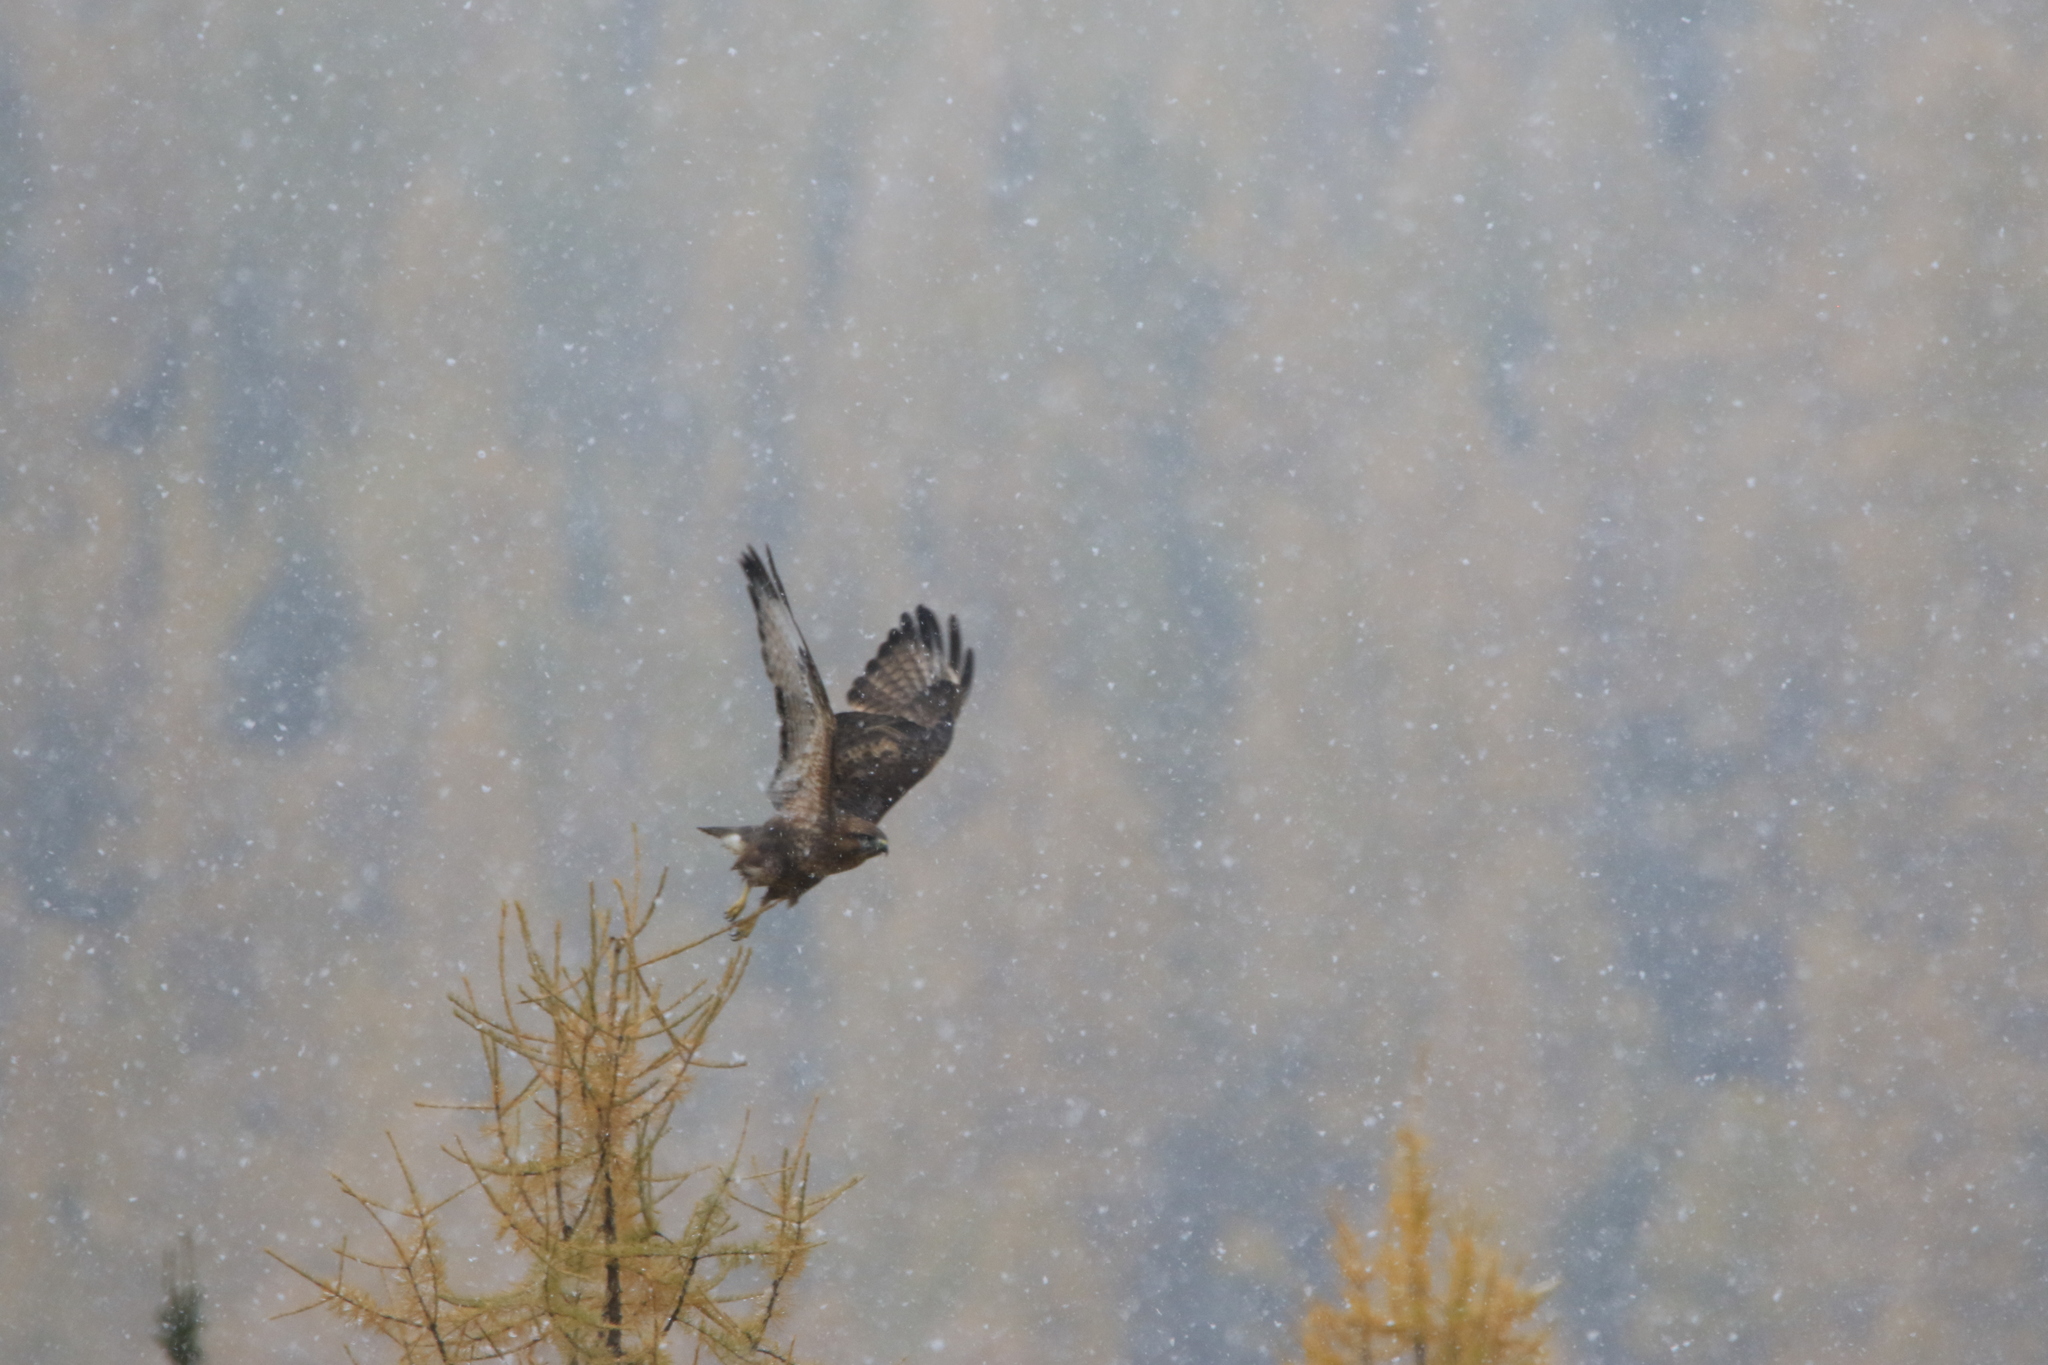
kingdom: Animalia
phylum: Chordata
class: Aves
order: Accipitriformes
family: Accipitridae
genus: Buteo
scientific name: Buteo buteo
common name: Common buzzard
